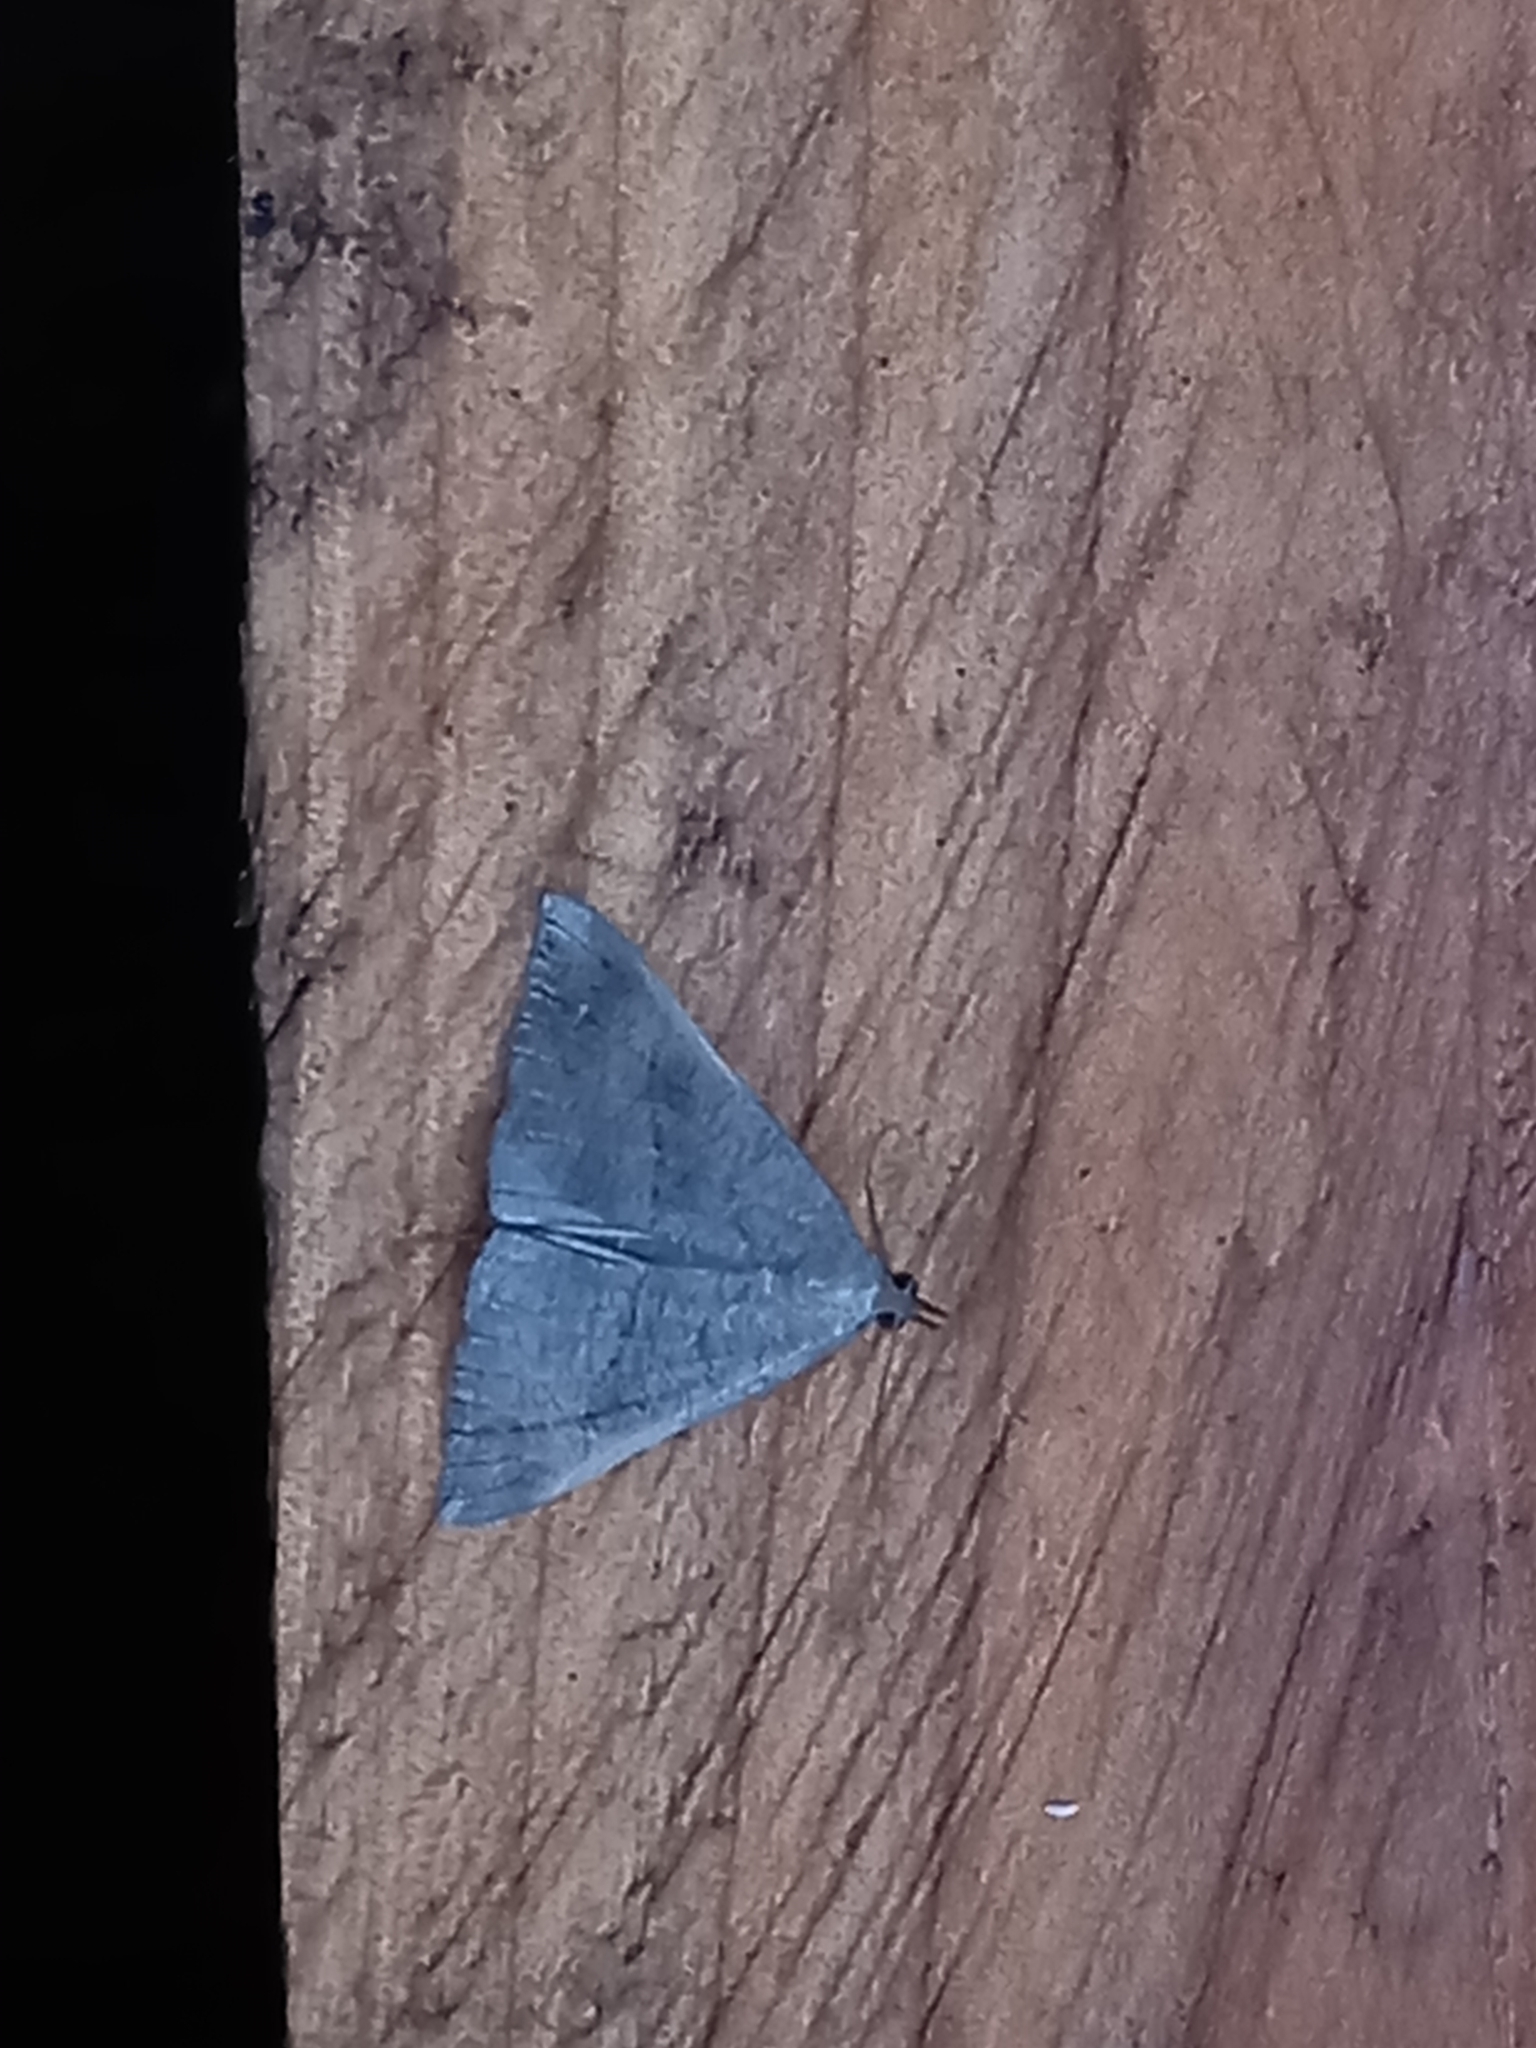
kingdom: Animalia
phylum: Arthropoda
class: Insecta
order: Lepidoptera
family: Erebidae
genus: Hypena
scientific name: Hypena proboscidalis
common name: Snout
